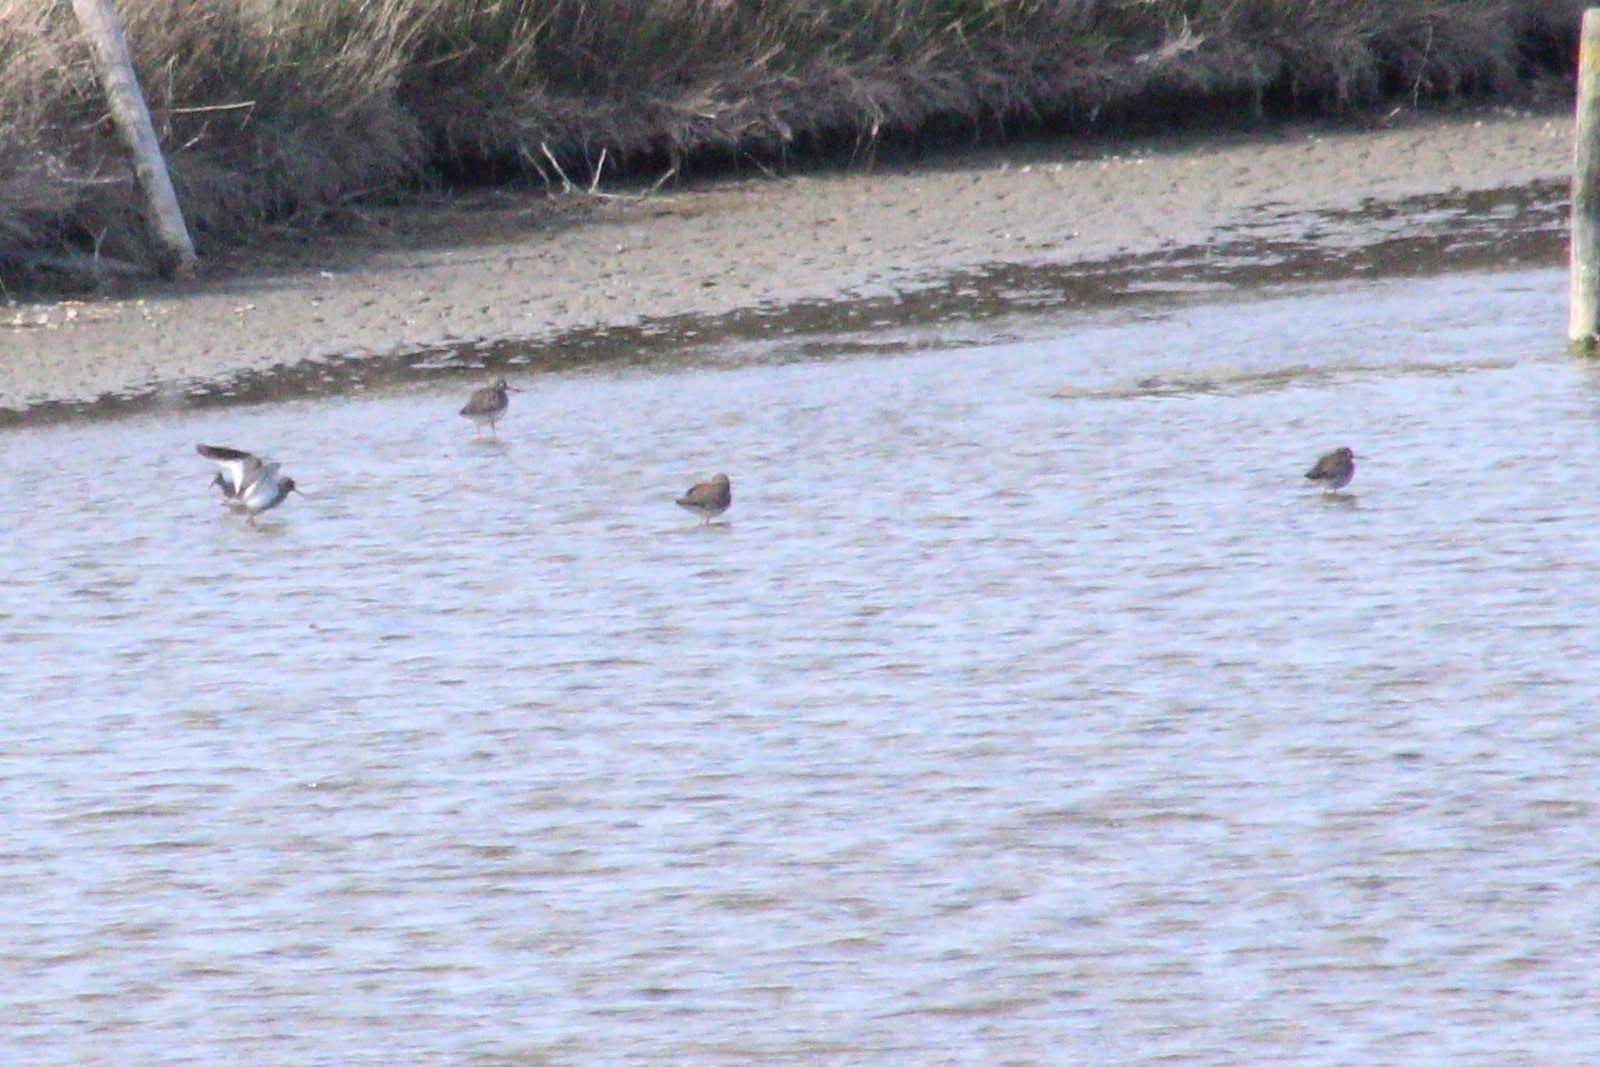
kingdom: Animalia
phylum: Chordata
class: Aves
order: Charadriiformes
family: Scolopacidae
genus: Tringa
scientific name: Tringa totanus
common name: Common redshank
